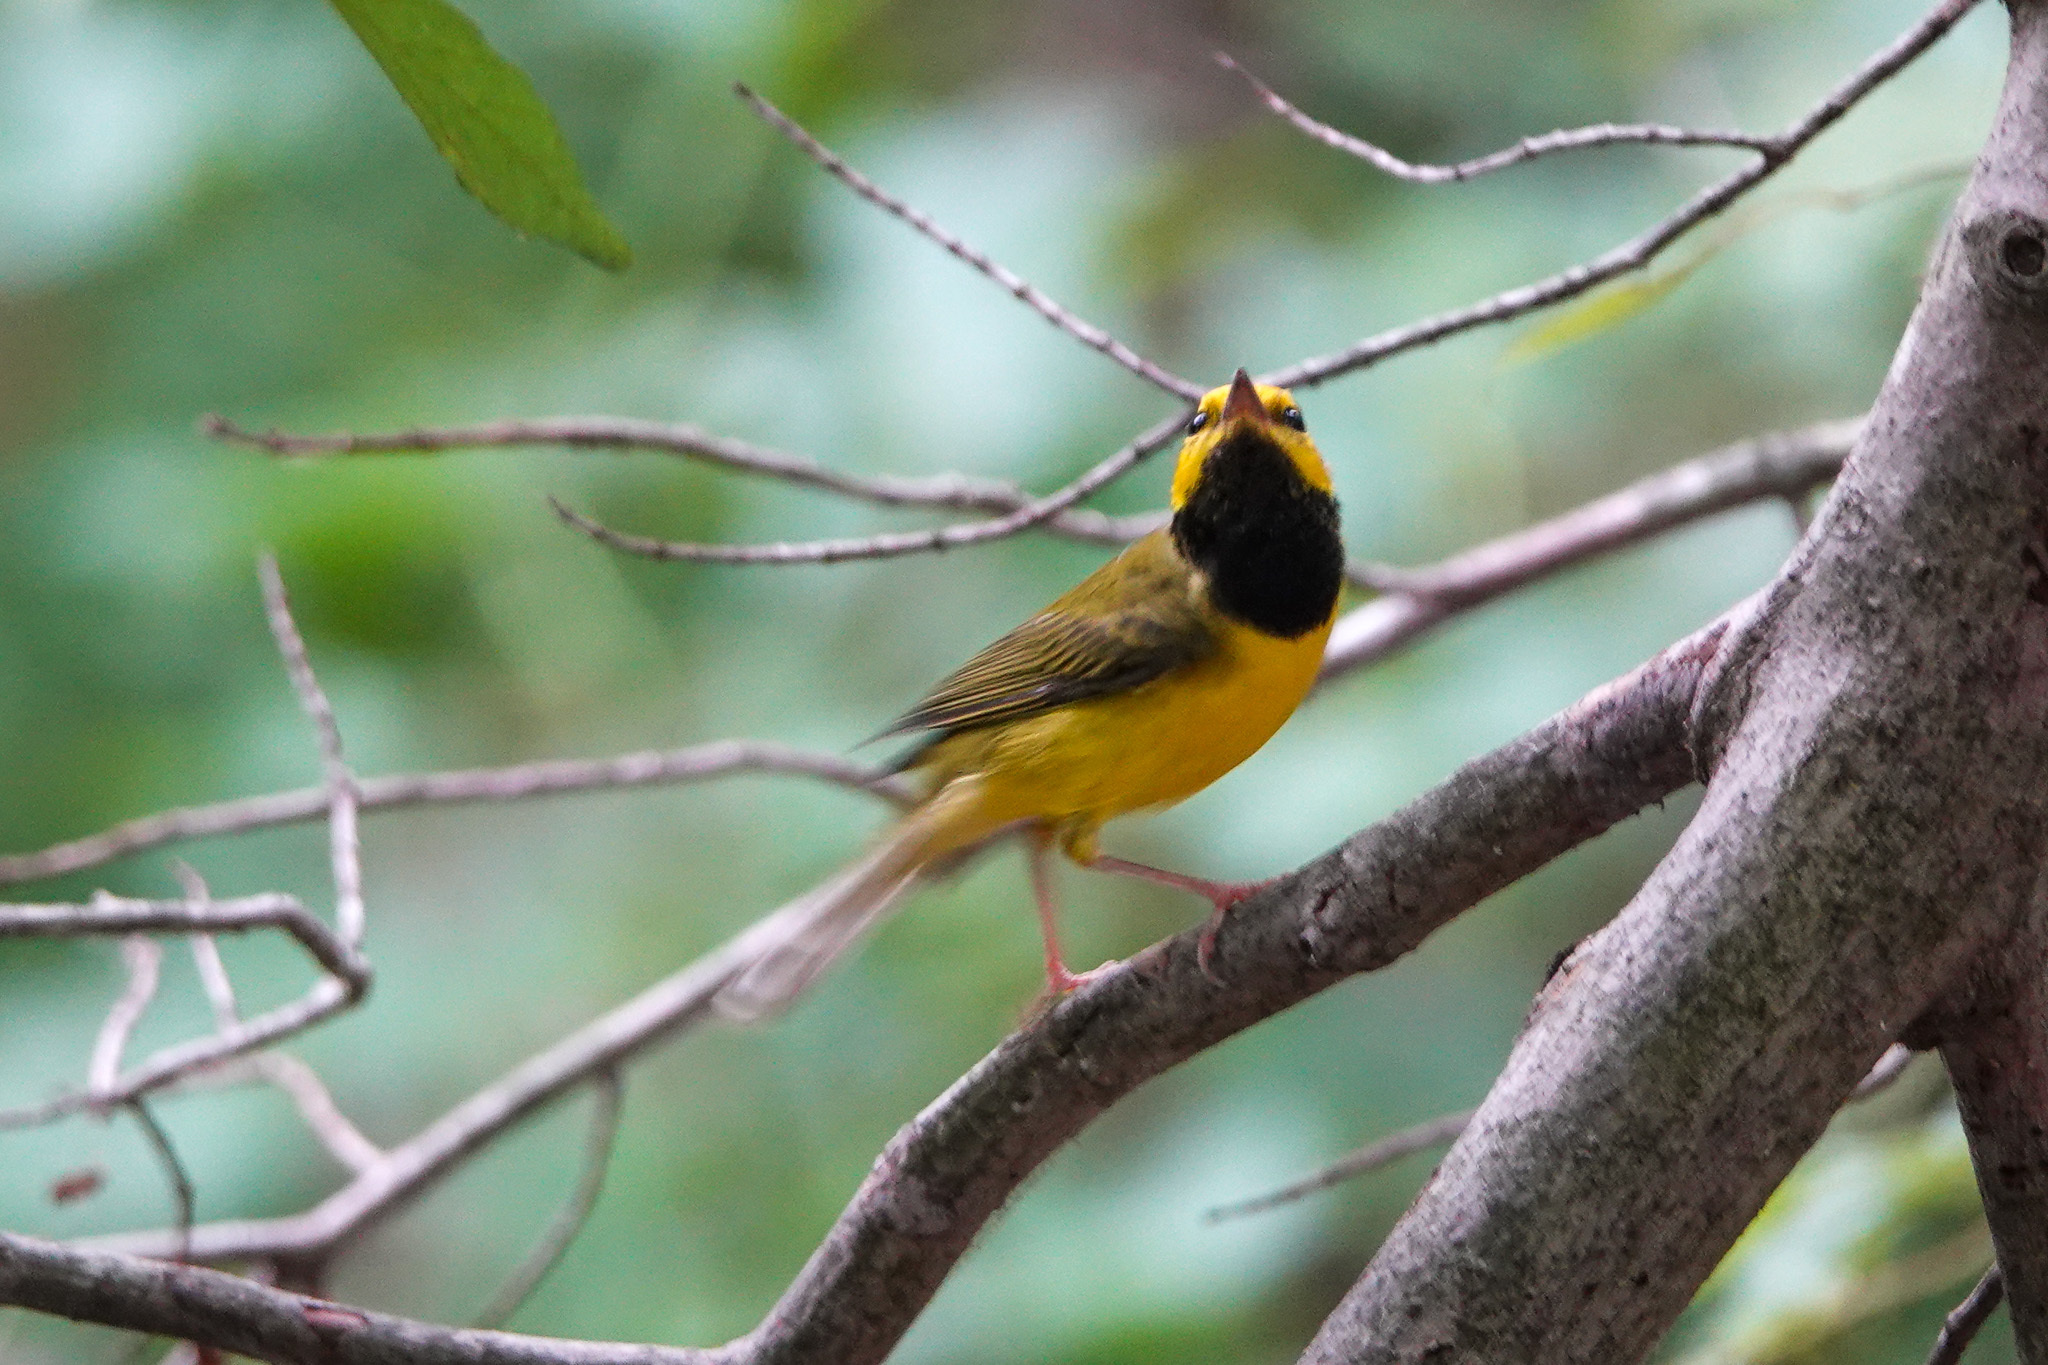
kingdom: Animalia
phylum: Chordata
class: Aves
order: Passeriformes
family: Parulidae
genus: Setophaga
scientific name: Setophaga citrina
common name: Hooded warbler
